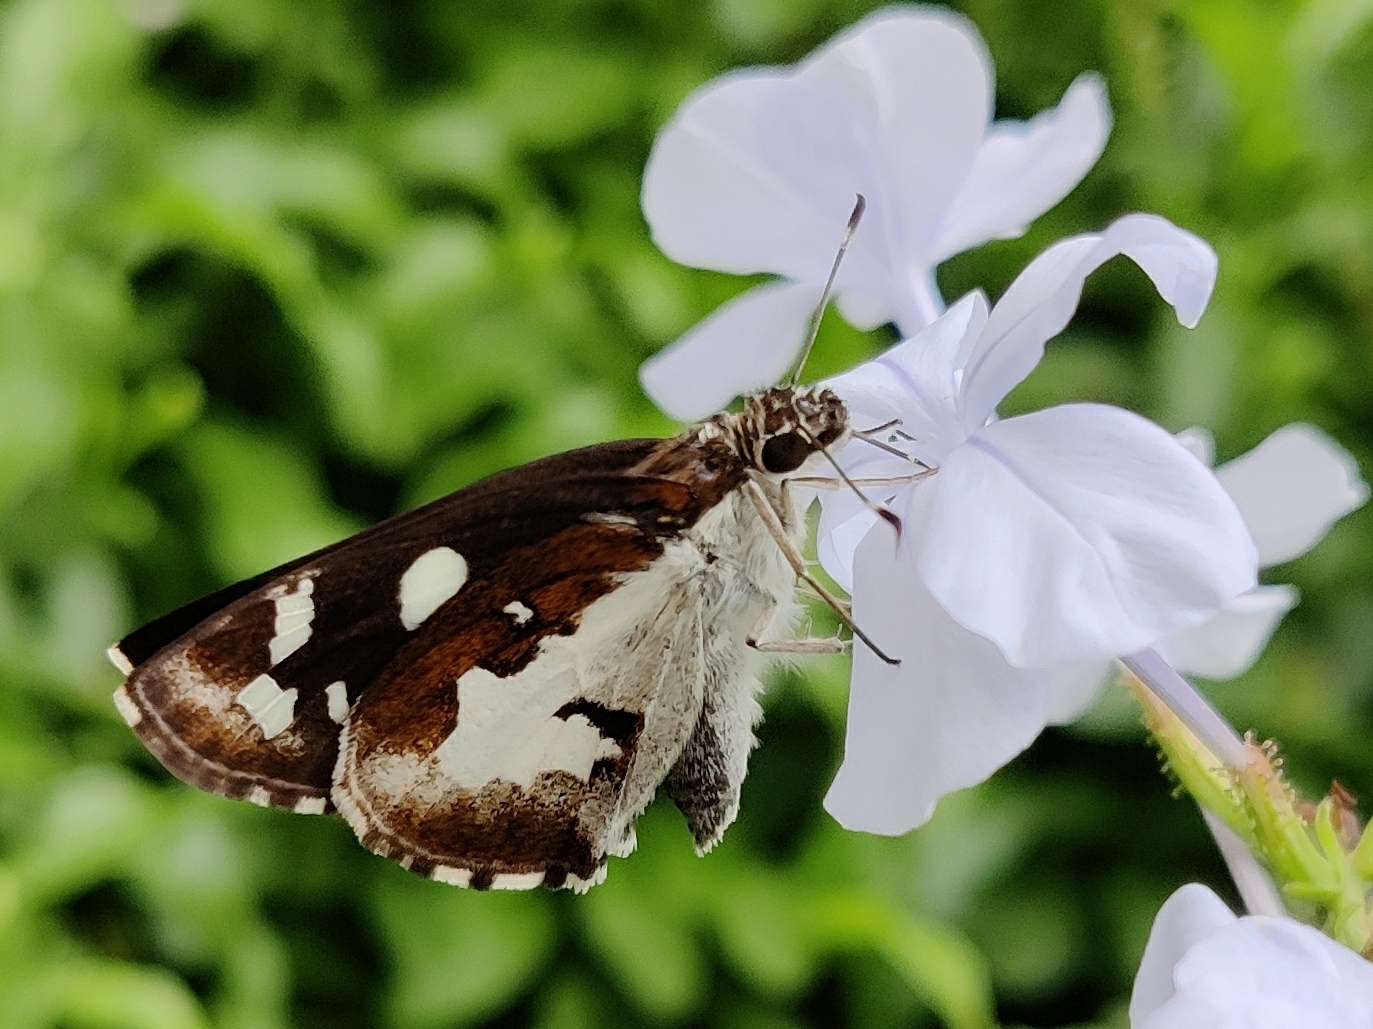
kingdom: Animalia
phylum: Arthropoda
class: Insecta
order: Lepidoptera
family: Hesperiidae
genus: Udaspes
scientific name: Udaspes folus
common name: Grass demon
